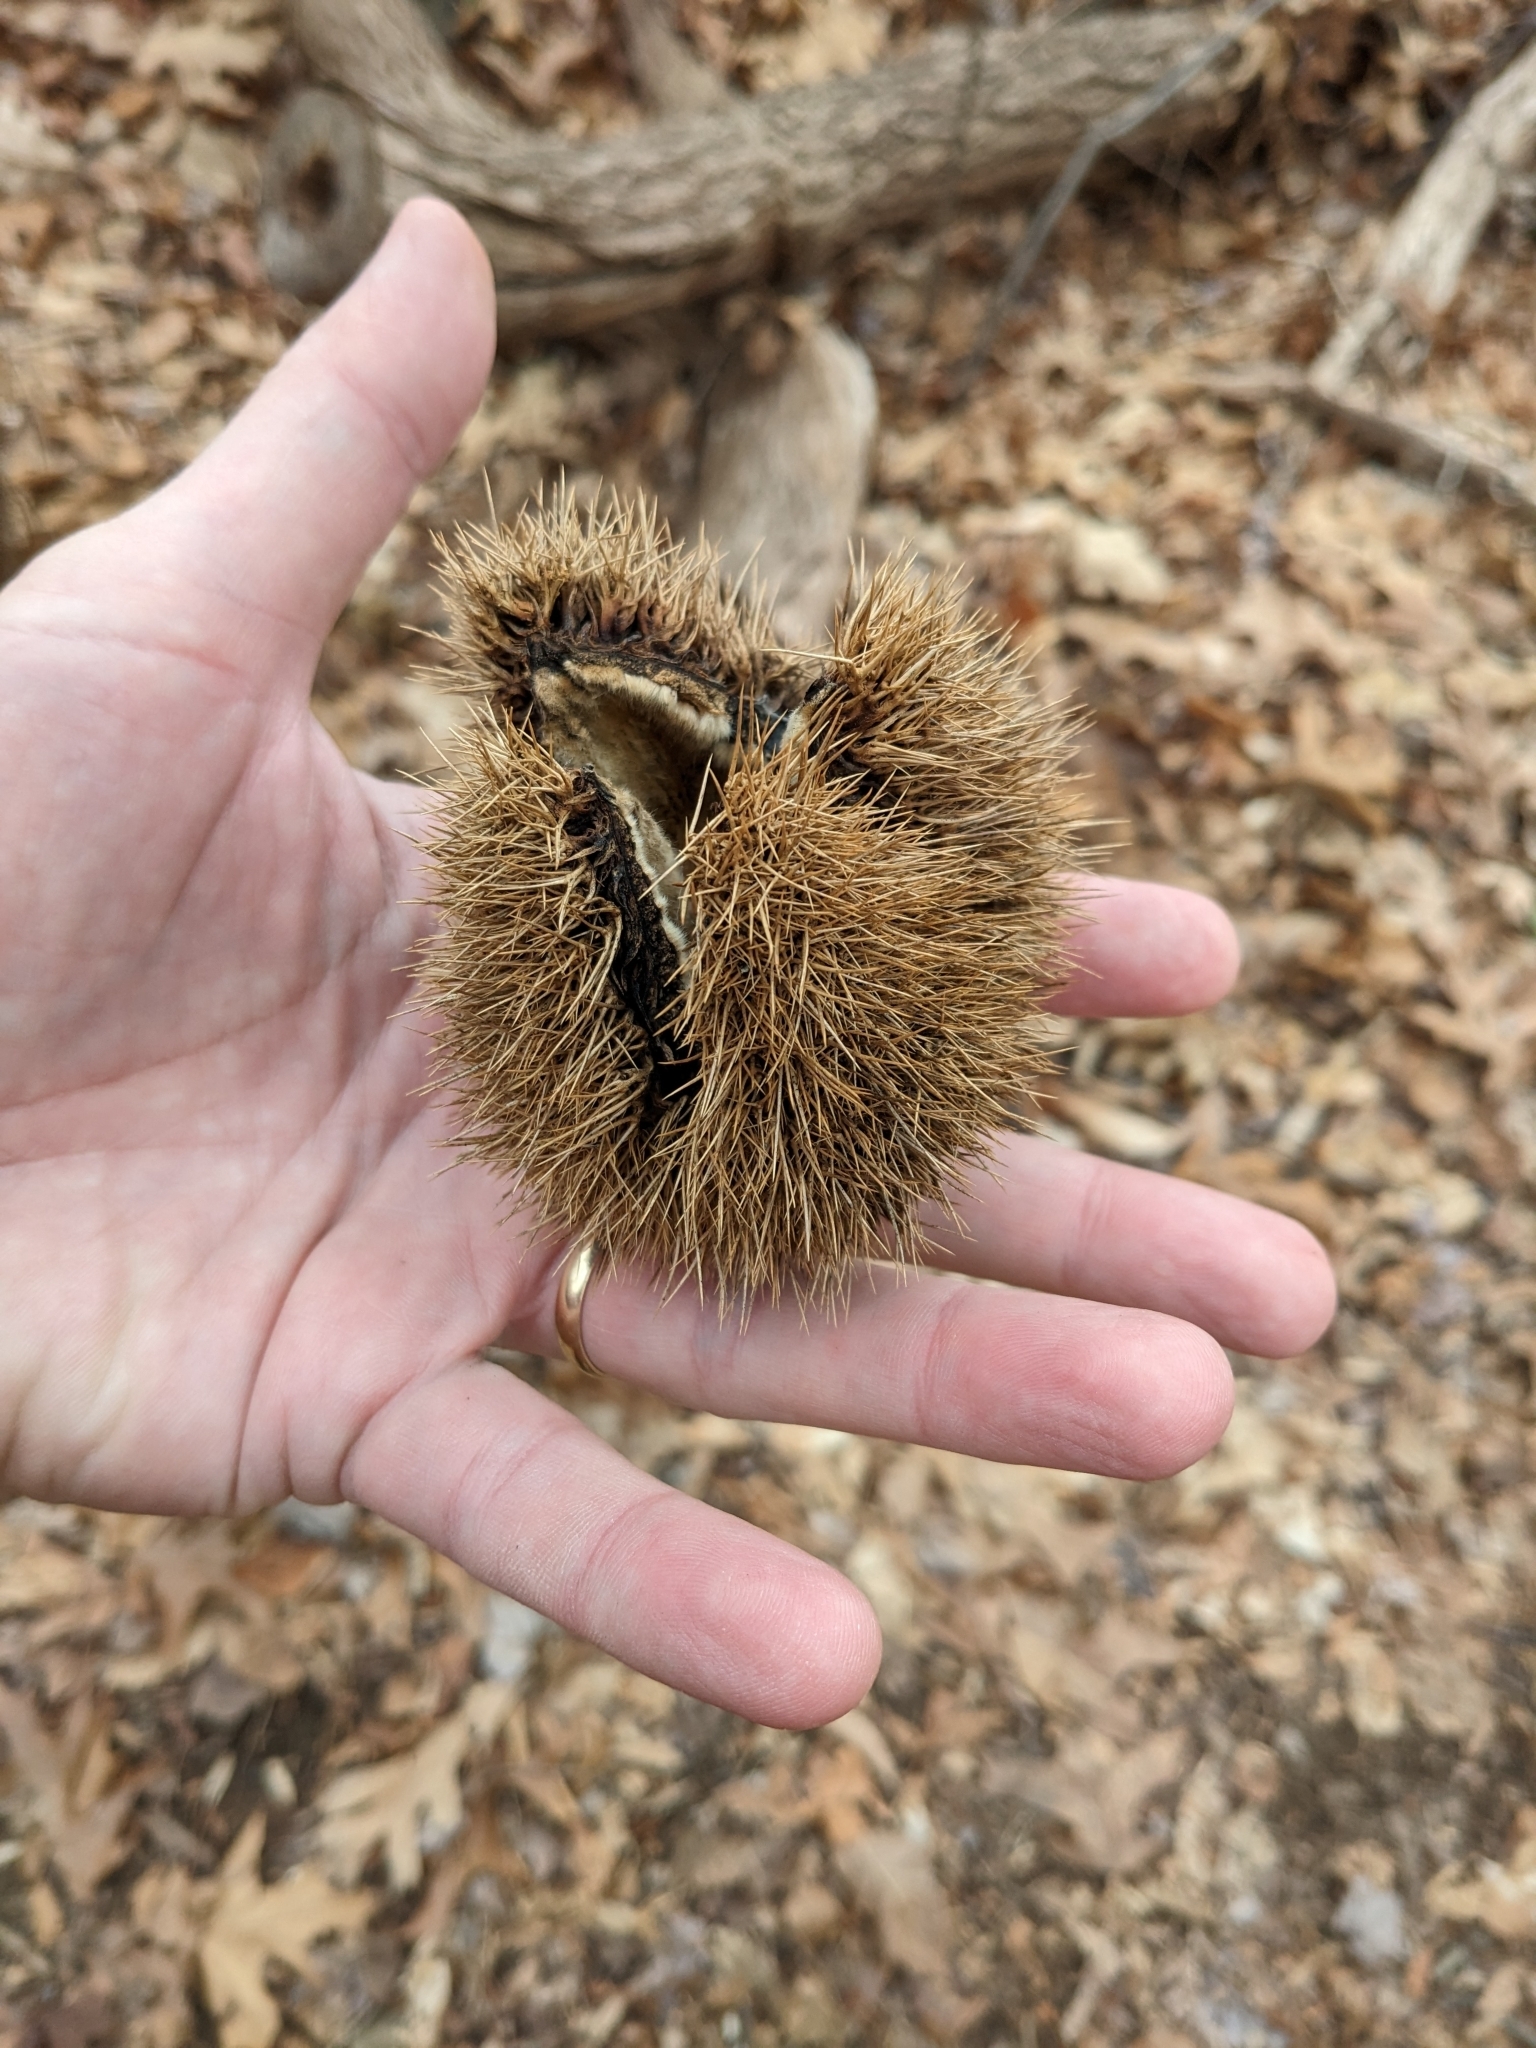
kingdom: Plantae
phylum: Tracheophyta
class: Magnoliopsida
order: Fagales
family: Fagaceae
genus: Castanea
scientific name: Castanea dentata
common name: American chestnut
